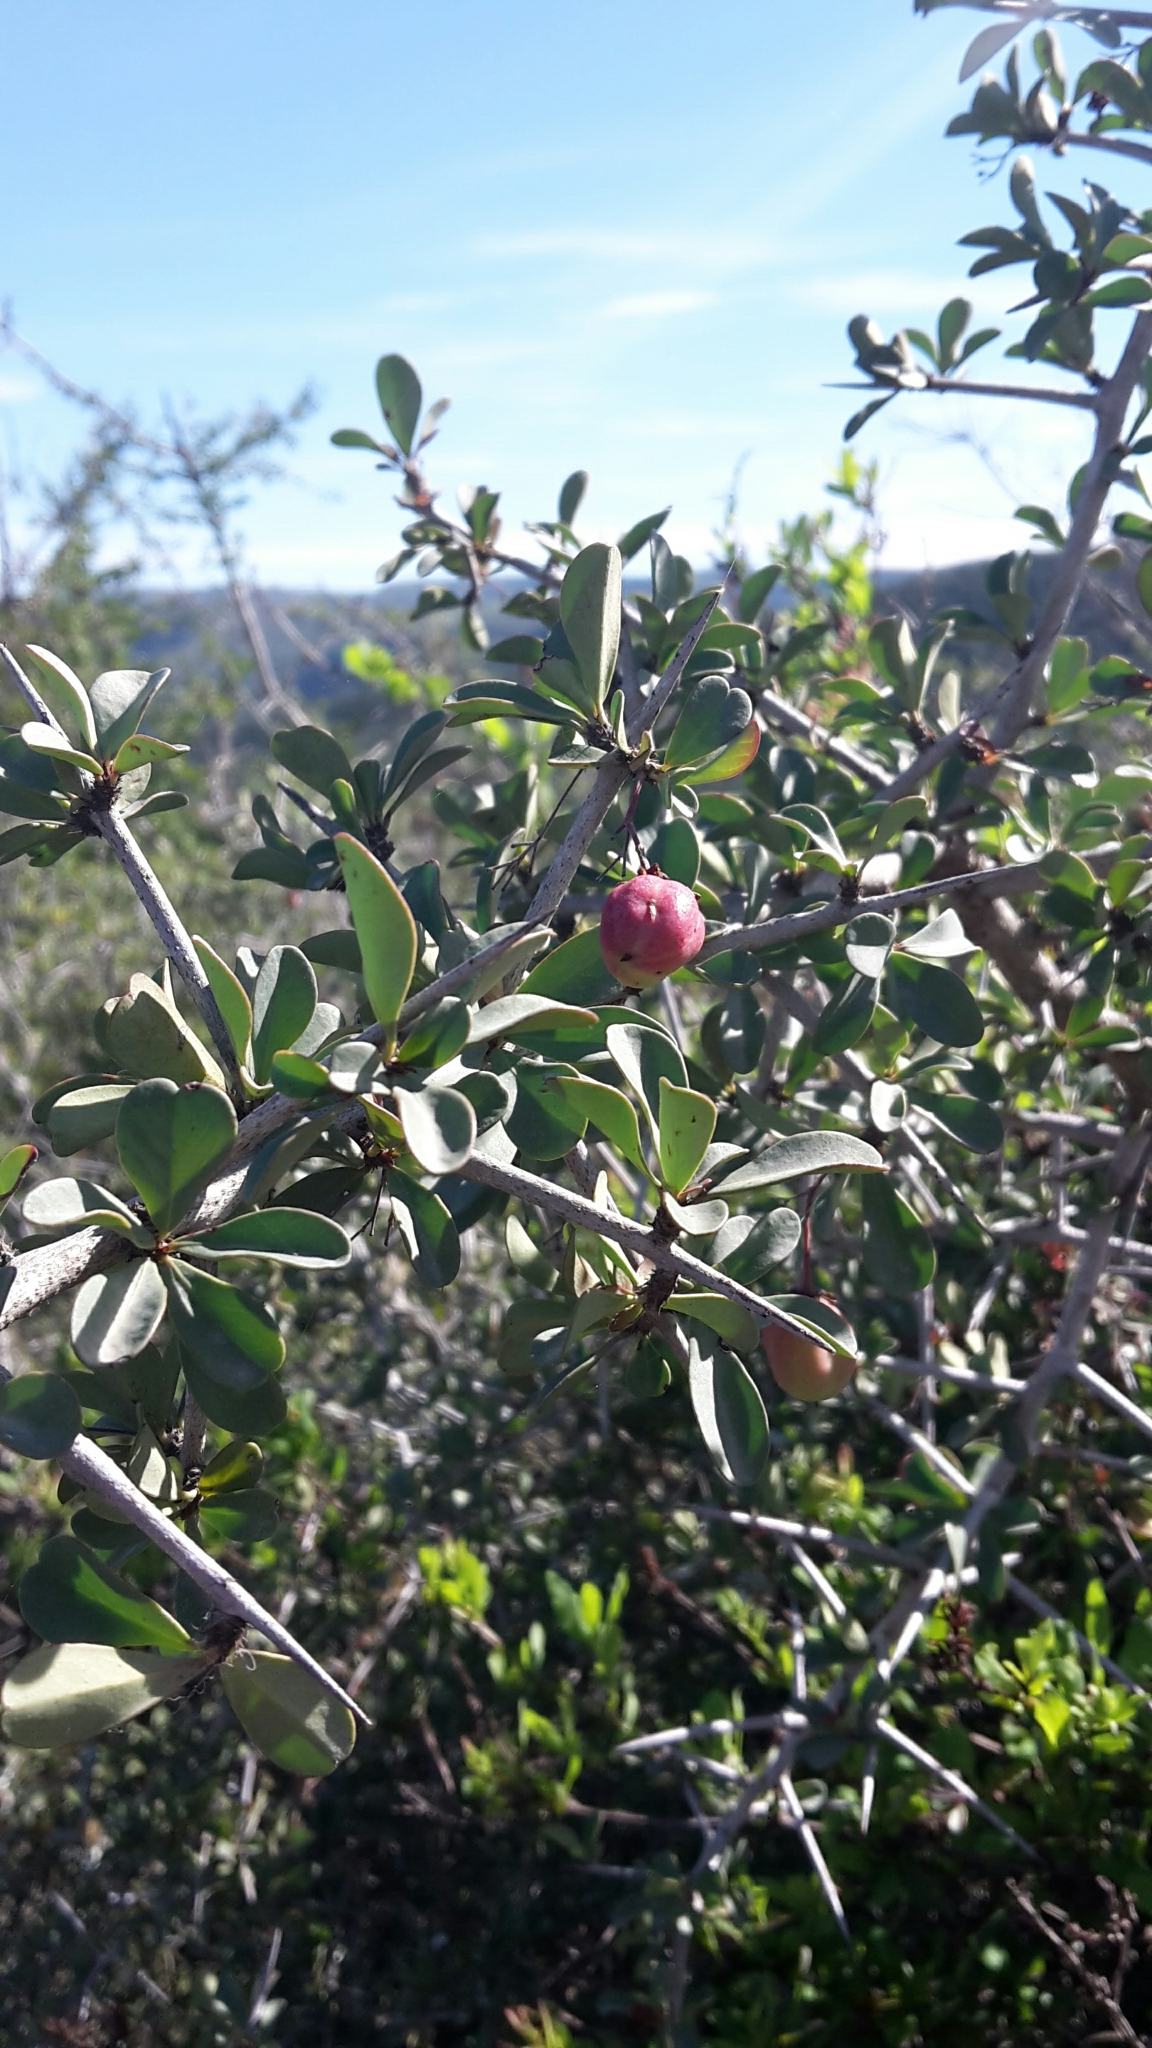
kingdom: Plantae
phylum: Tracheophyta
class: Magnoliopsida
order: Celastrales
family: Celastraceae
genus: Putterlickia
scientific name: Putterlickia pyracantha
